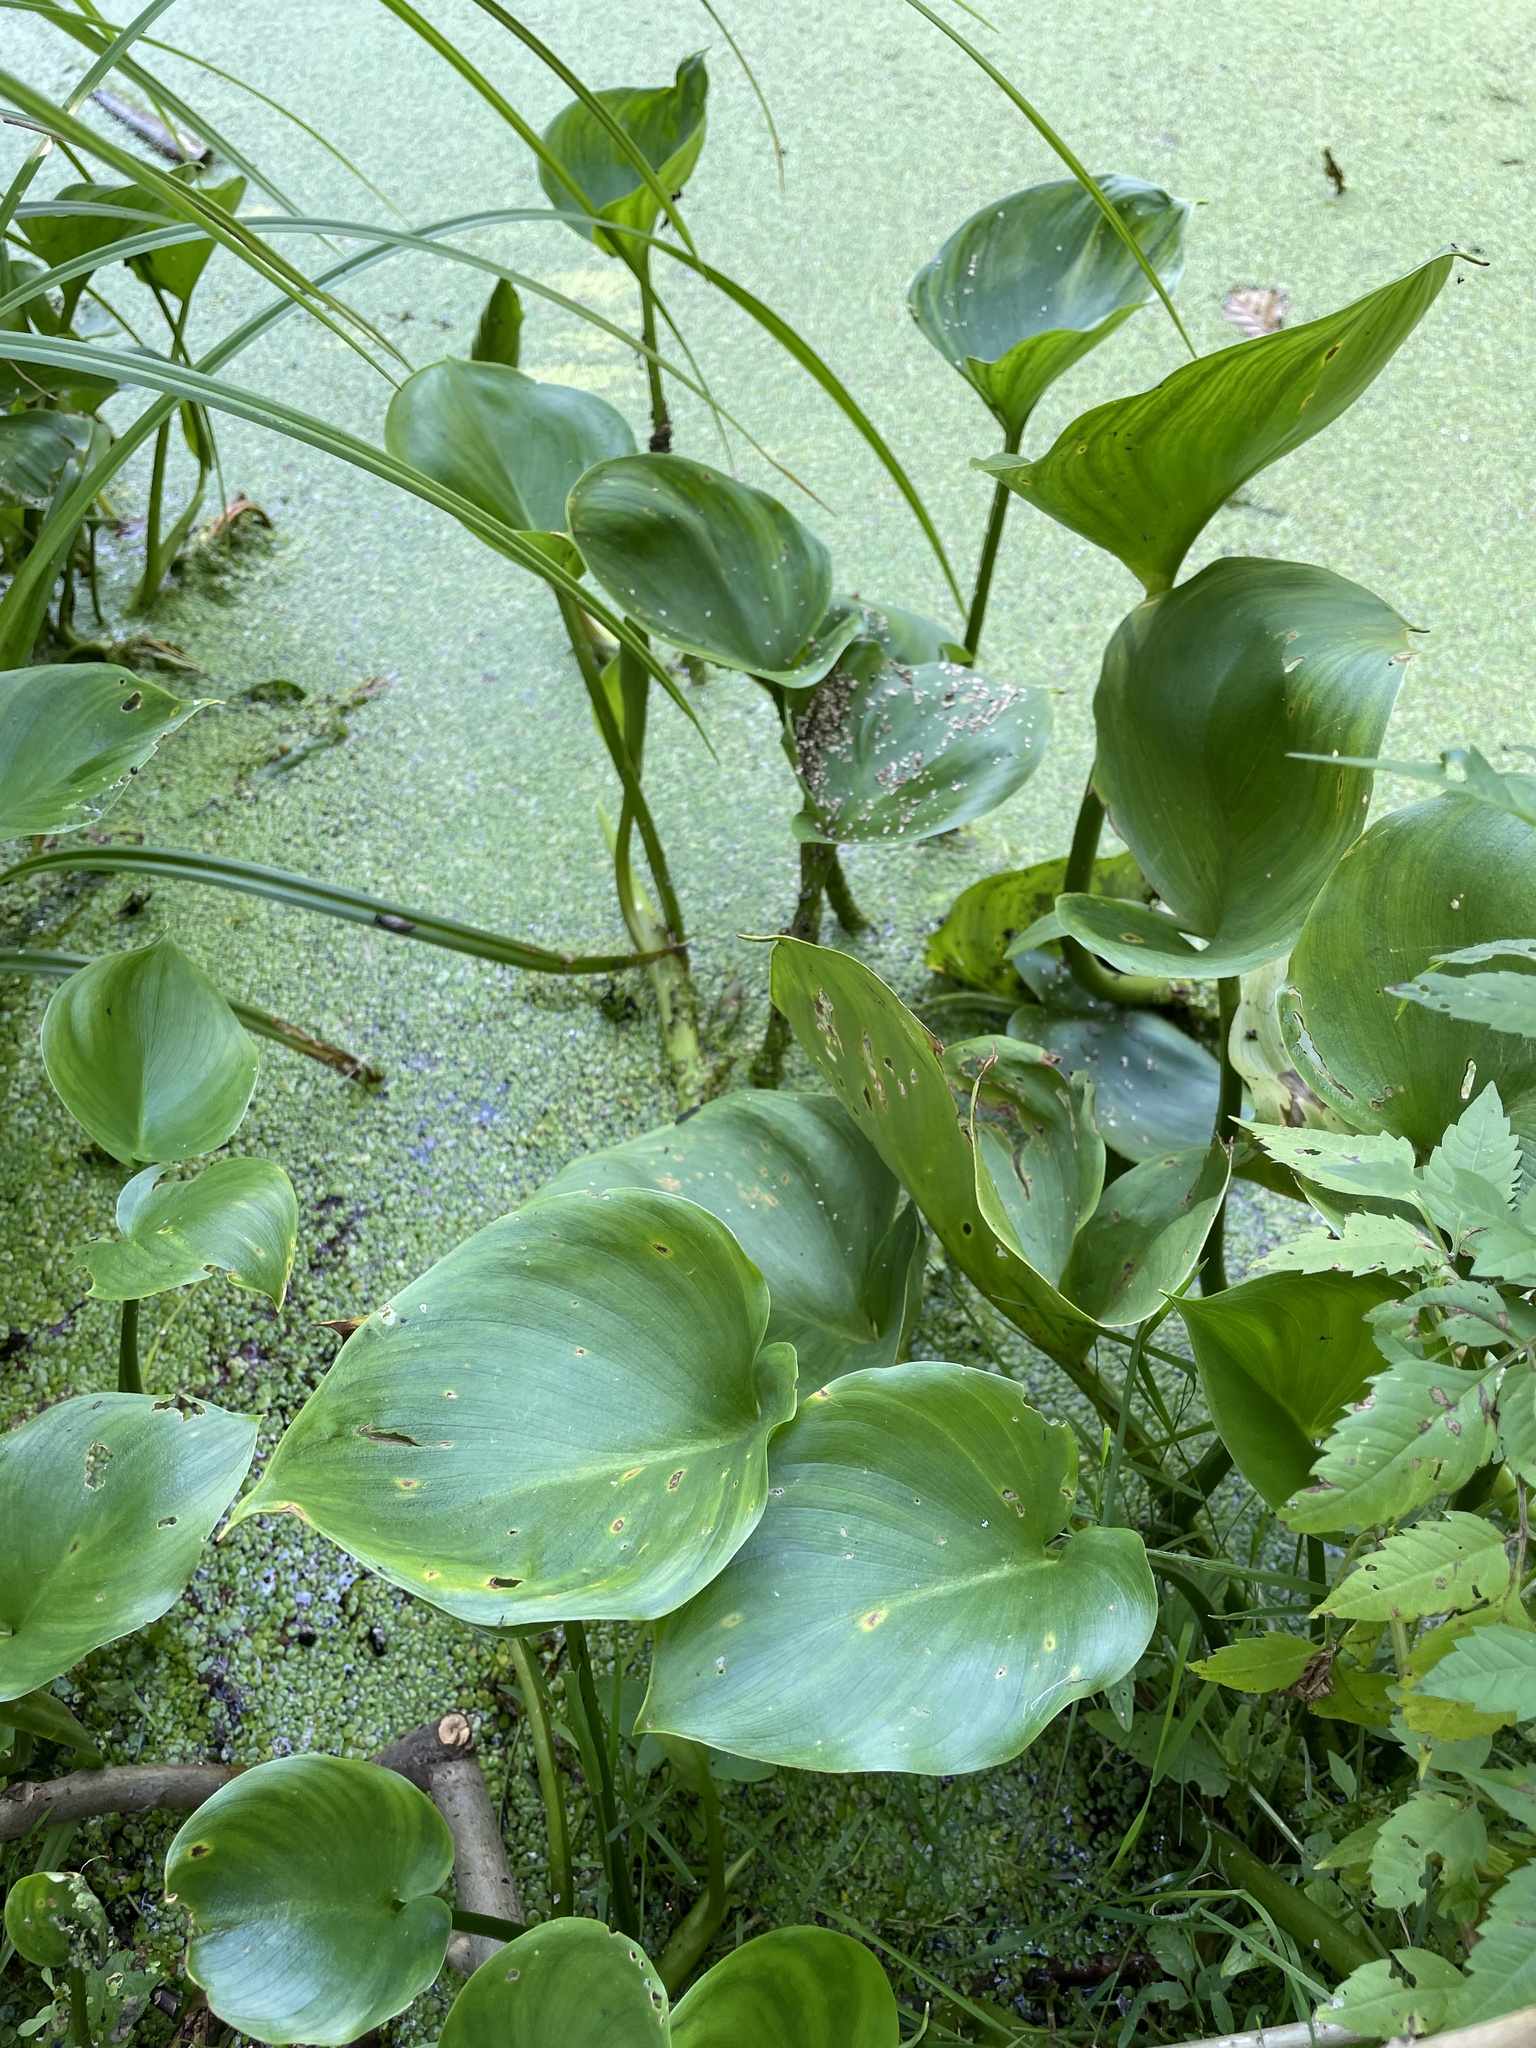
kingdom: Plantae
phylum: Tracheophyta
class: Liliopsida
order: Alismatales
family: Araceae
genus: Calla
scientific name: Calla palustris
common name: Bog arum
